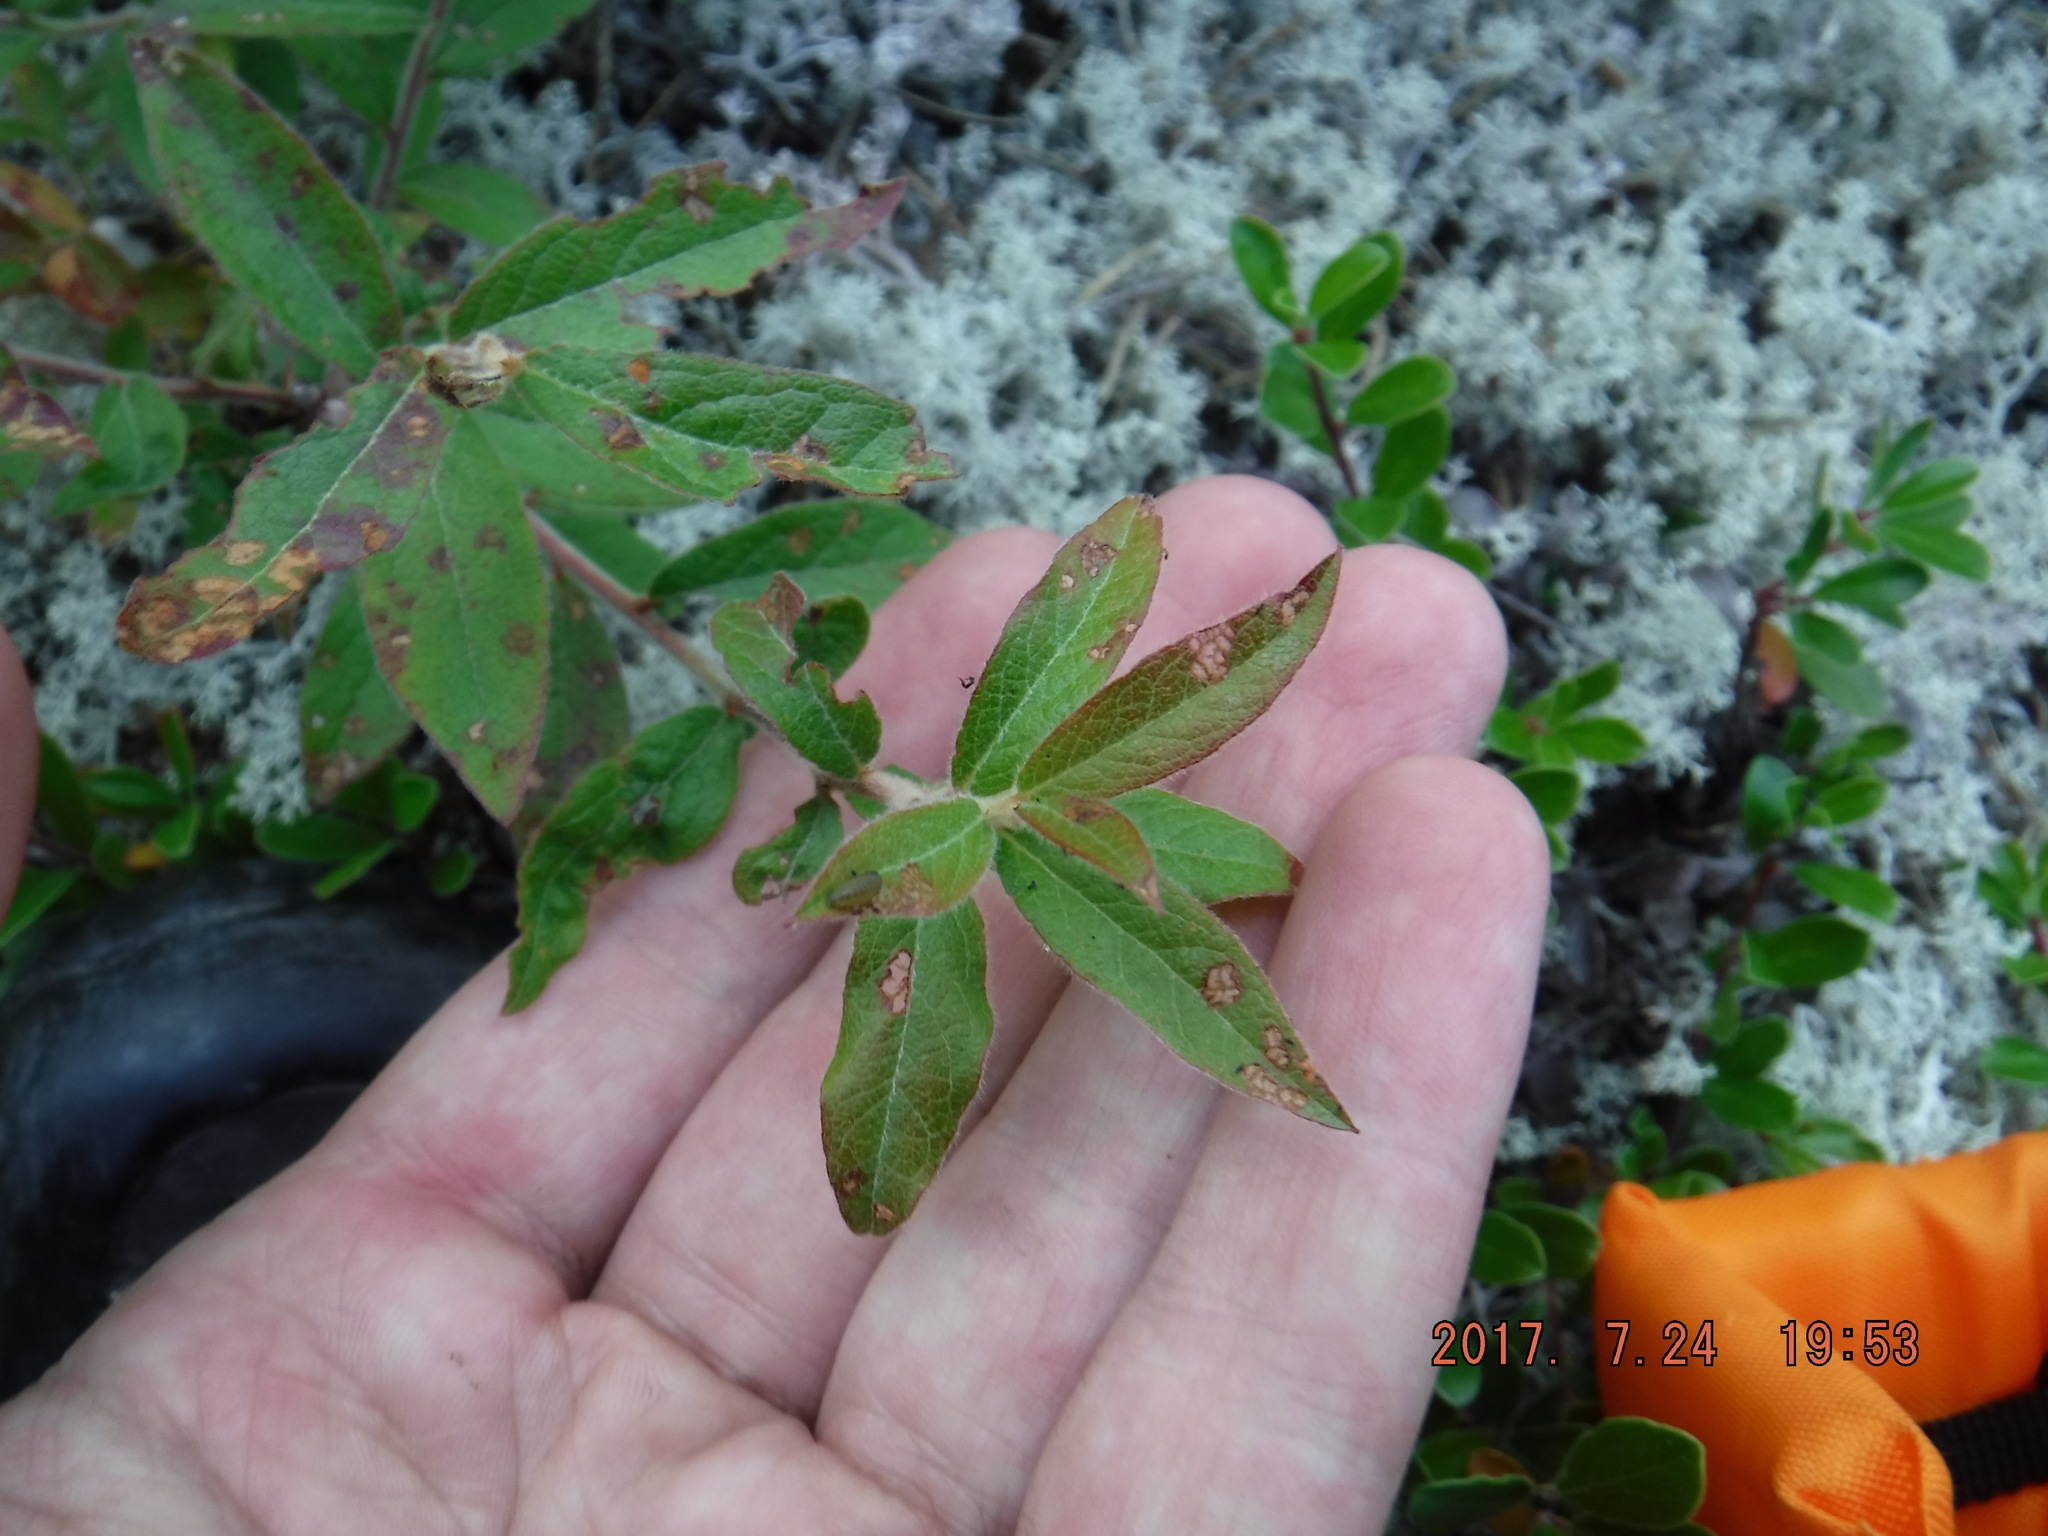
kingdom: Plantae
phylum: Tracheophyta
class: Magnoliopsida
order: Ericales
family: Ericaceae
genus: Vaccinium
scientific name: Vaccinium angustifolium
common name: Early lowbush blueberry
